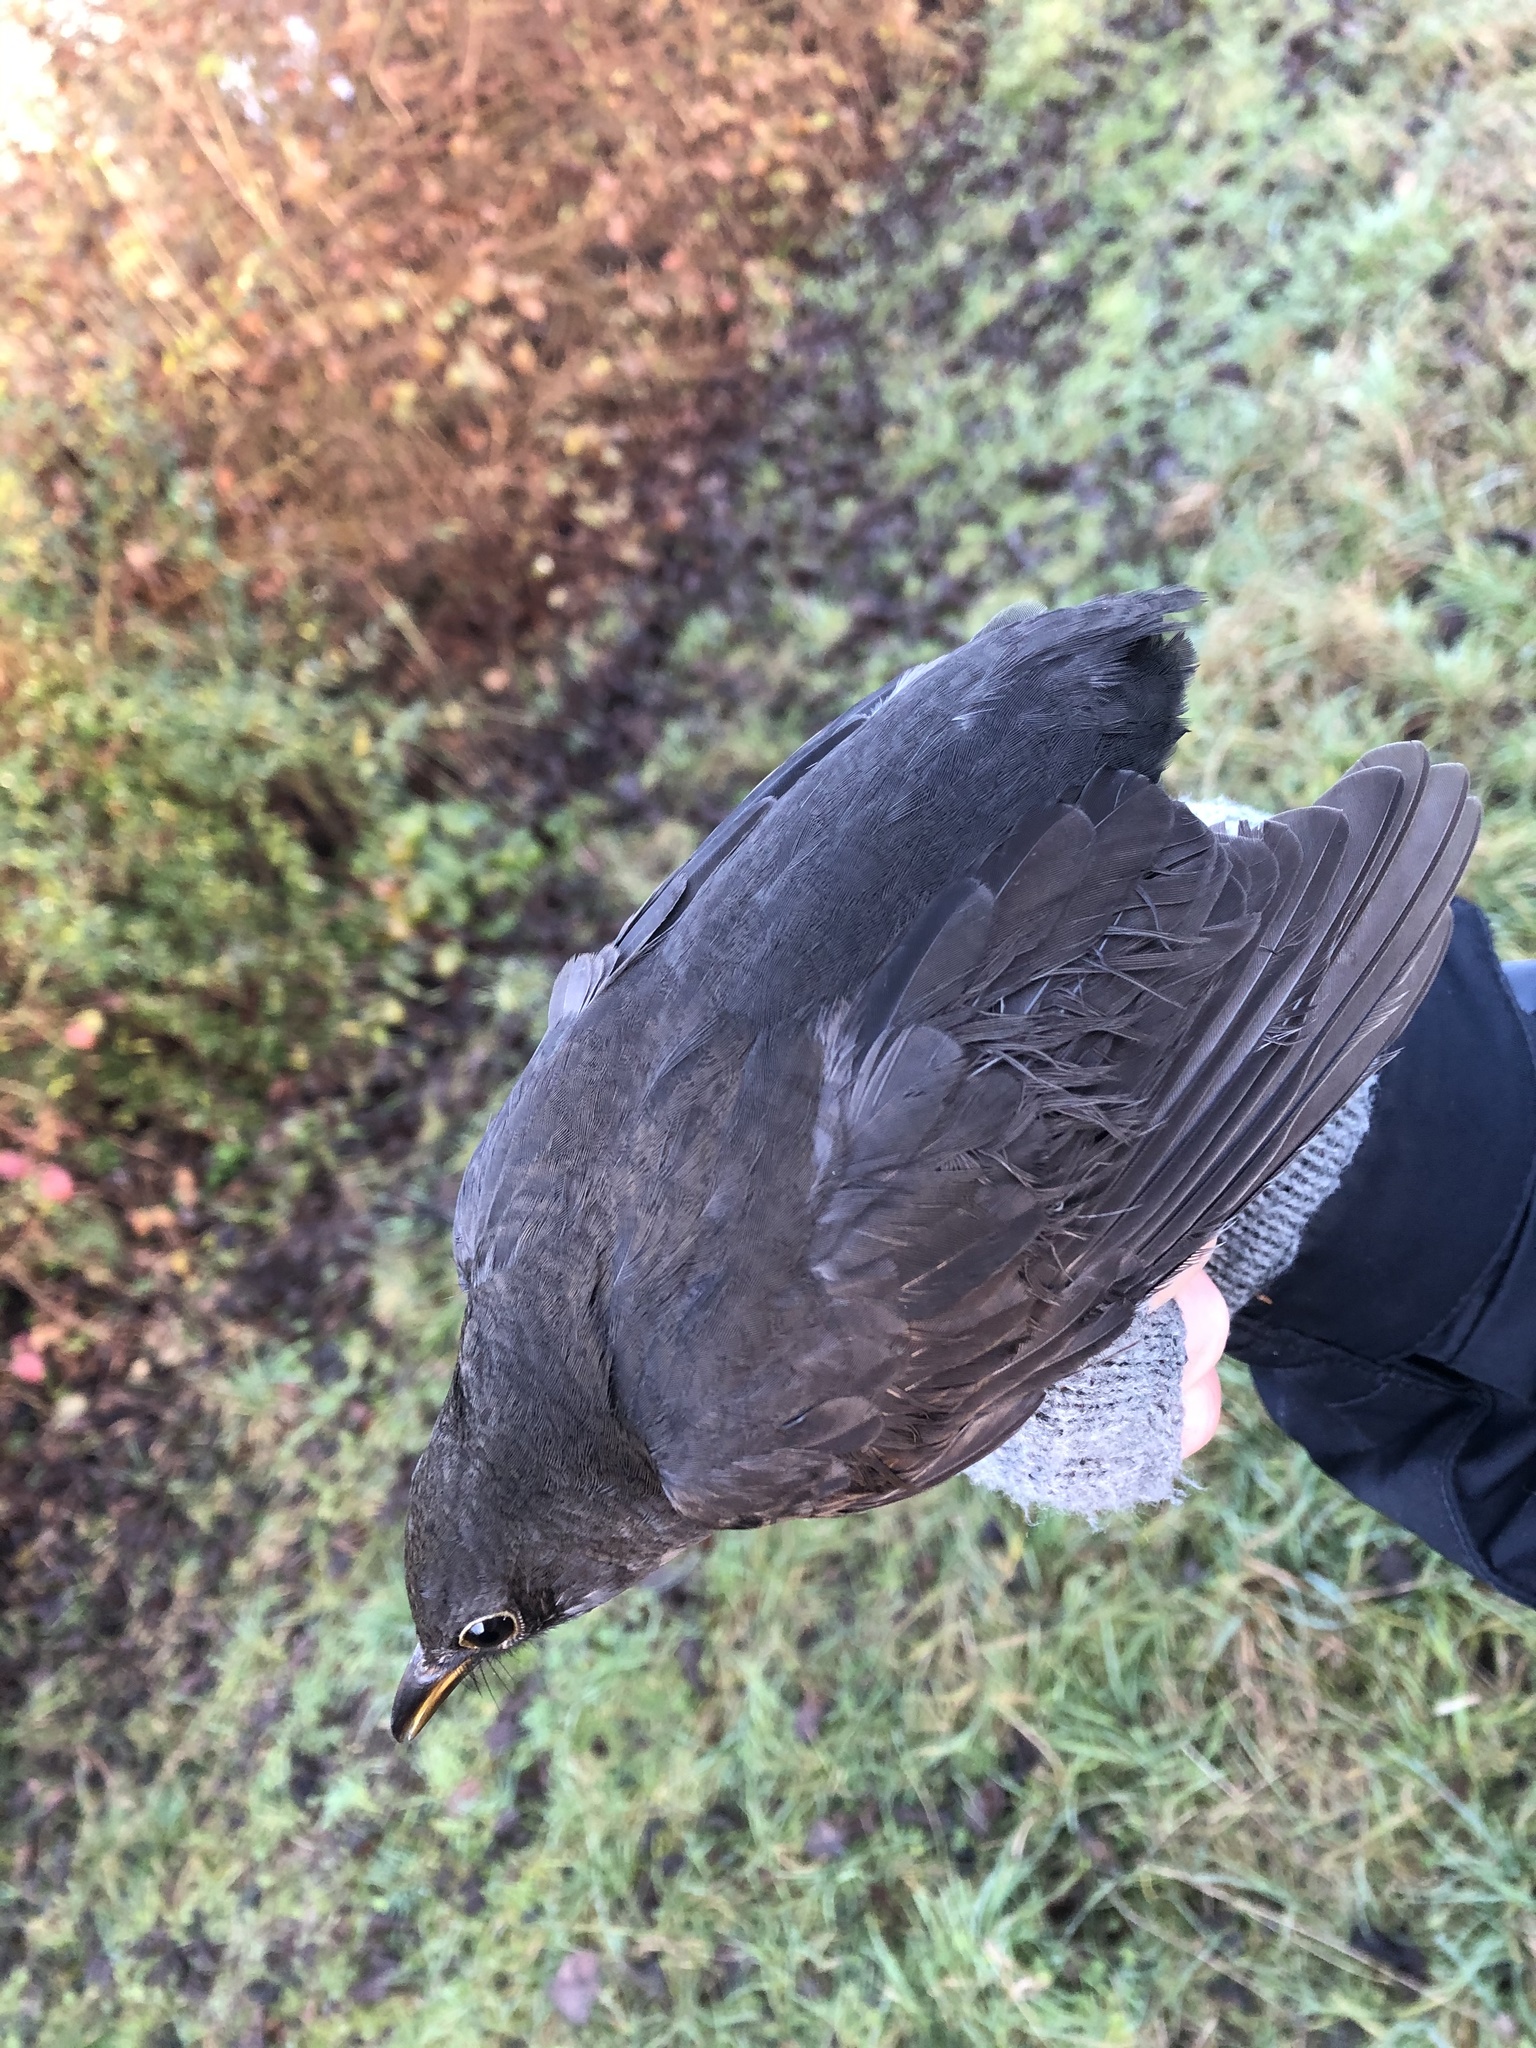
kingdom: Animalia
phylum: Chordata
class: Aves
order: Passeriformes
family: Turdidae
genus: Turdus
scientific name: Turdus merula
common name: Common blackbird
